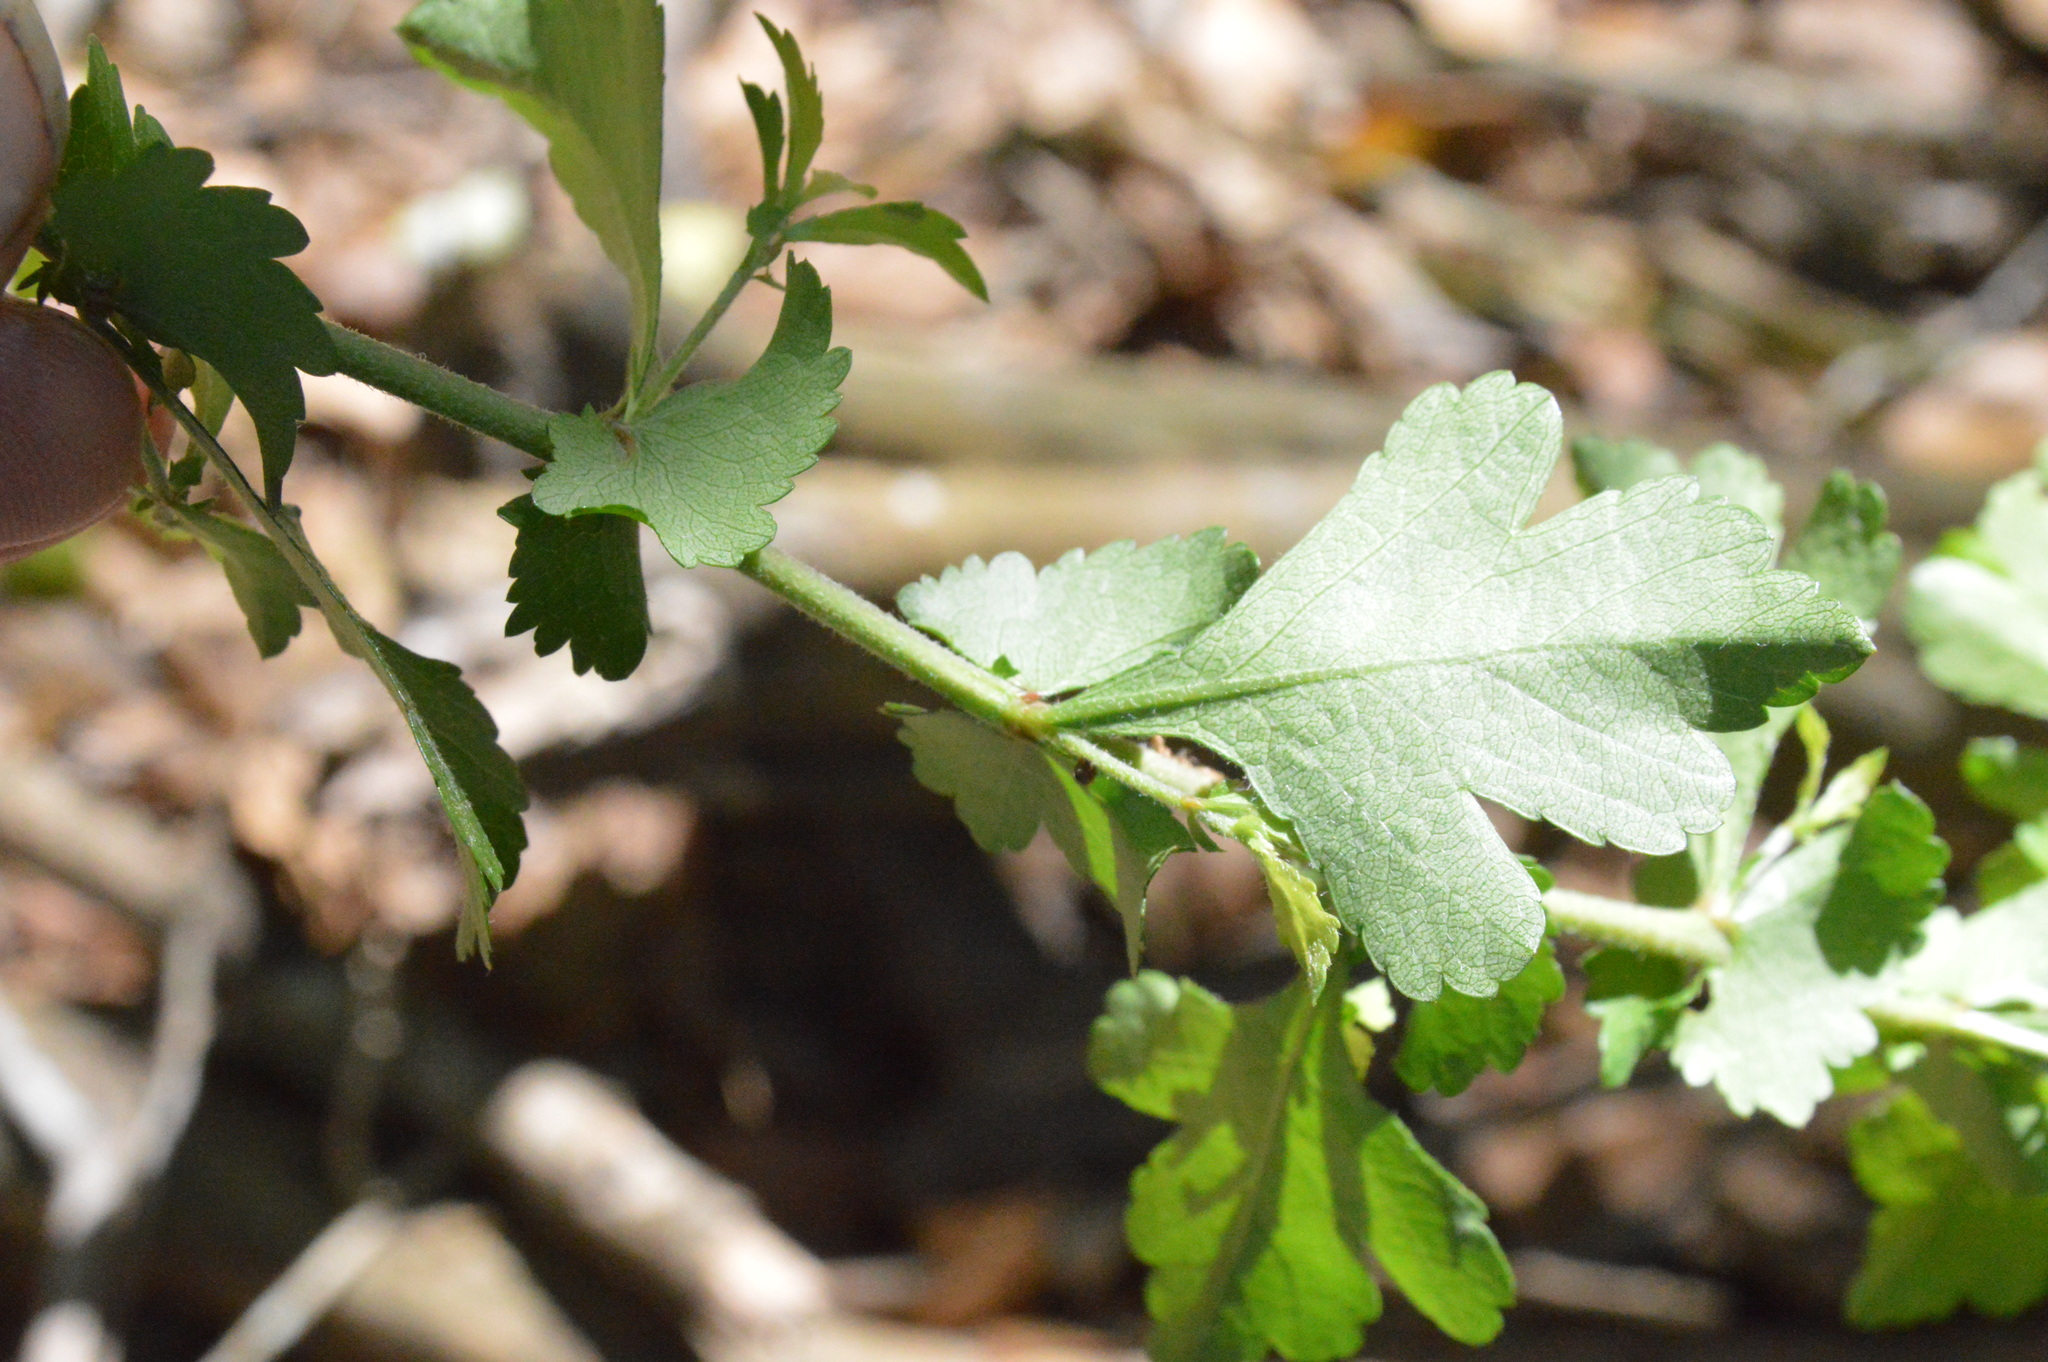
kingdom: Plantae
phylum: Tracheophyta
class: Magnoliopsida
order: Rosales
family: Rosaceae
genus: Crataegus
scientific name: Crataegus spathulata
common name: Littlehip hawthorn
